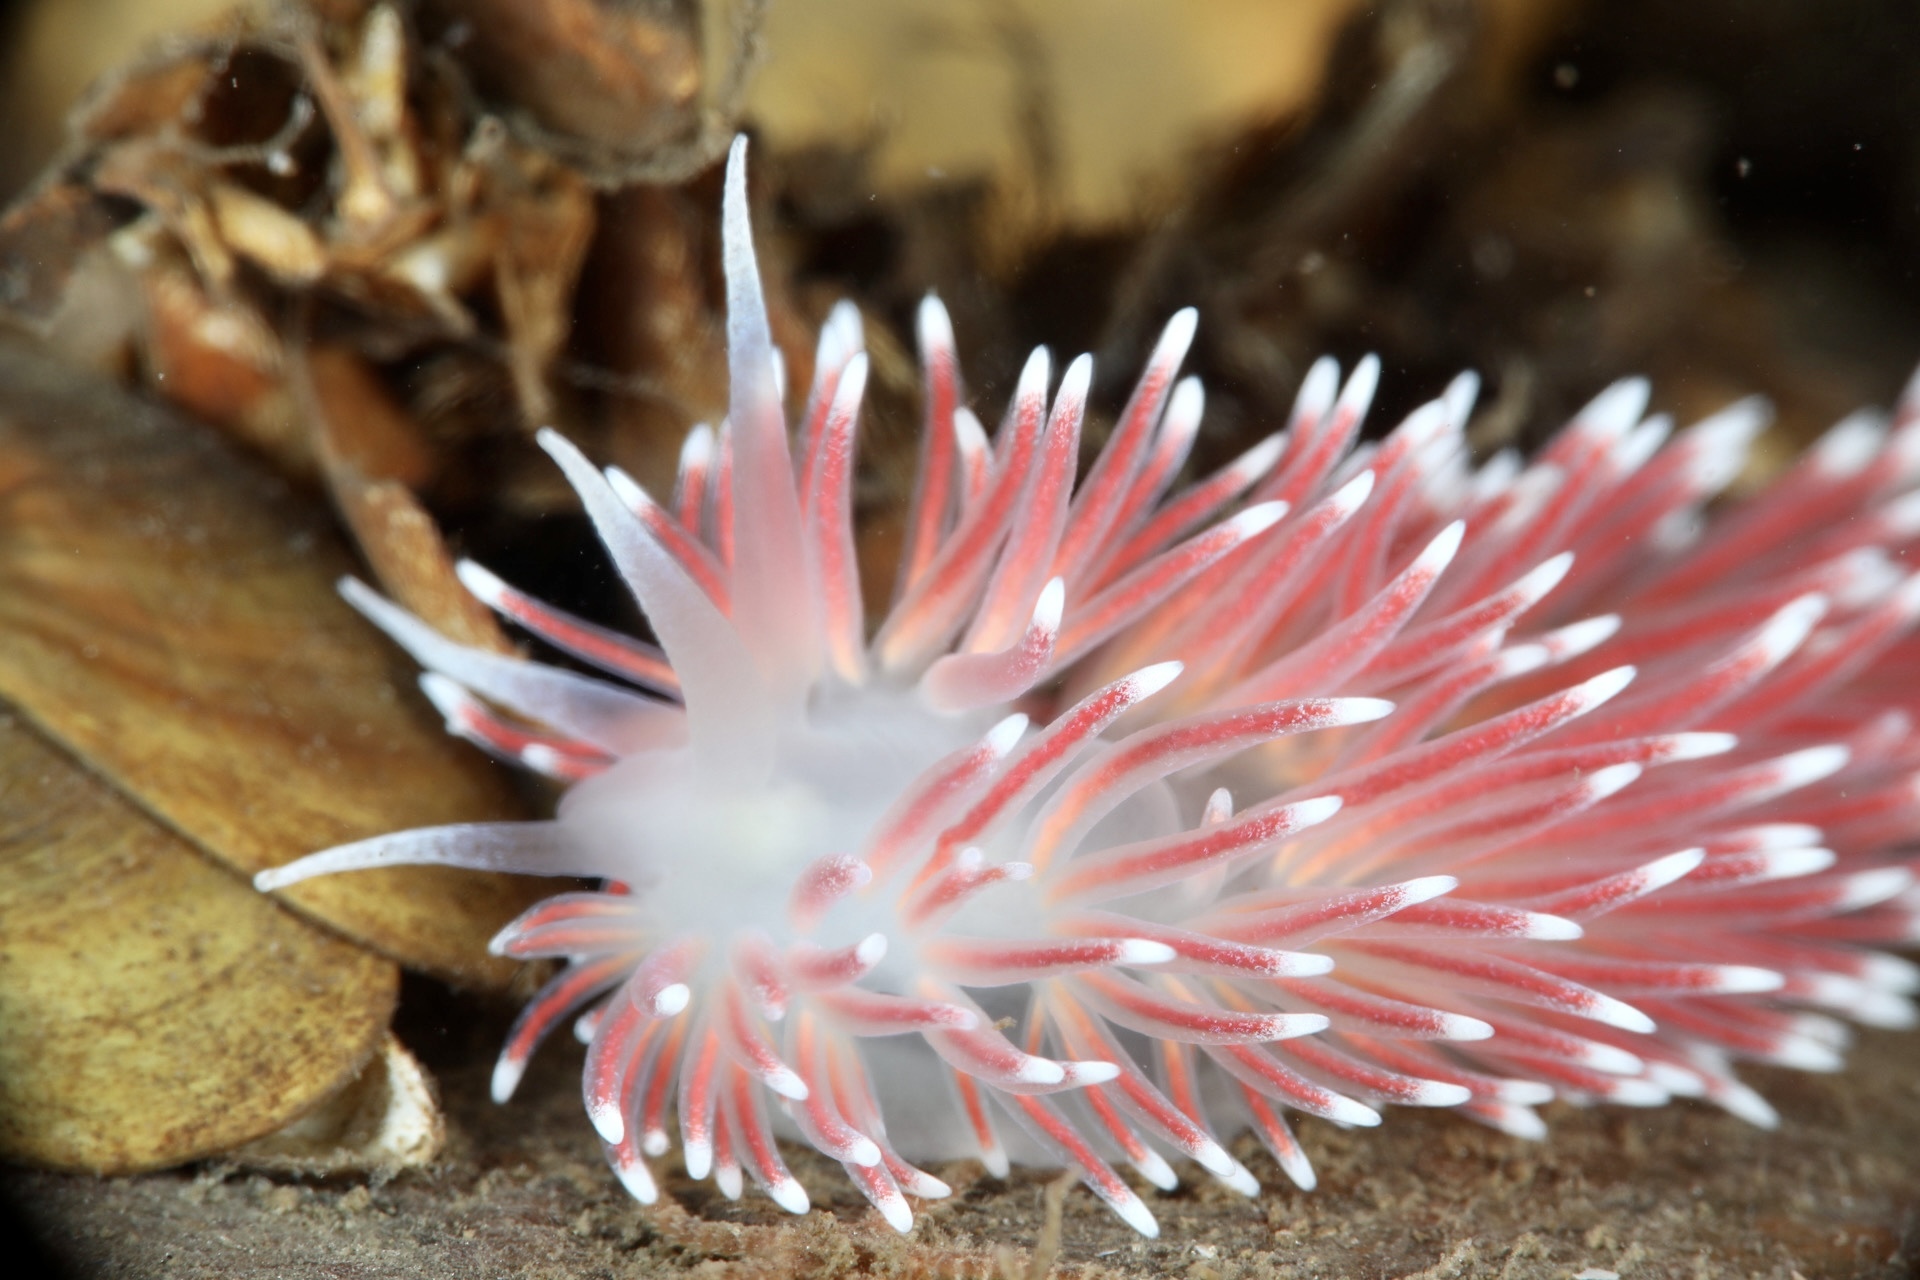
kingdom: Animalia
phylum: Mollusca
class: Gastropoda
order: Nudibranchia
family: Flabellinidae
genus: Carronella
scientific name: Carronella pellucida
